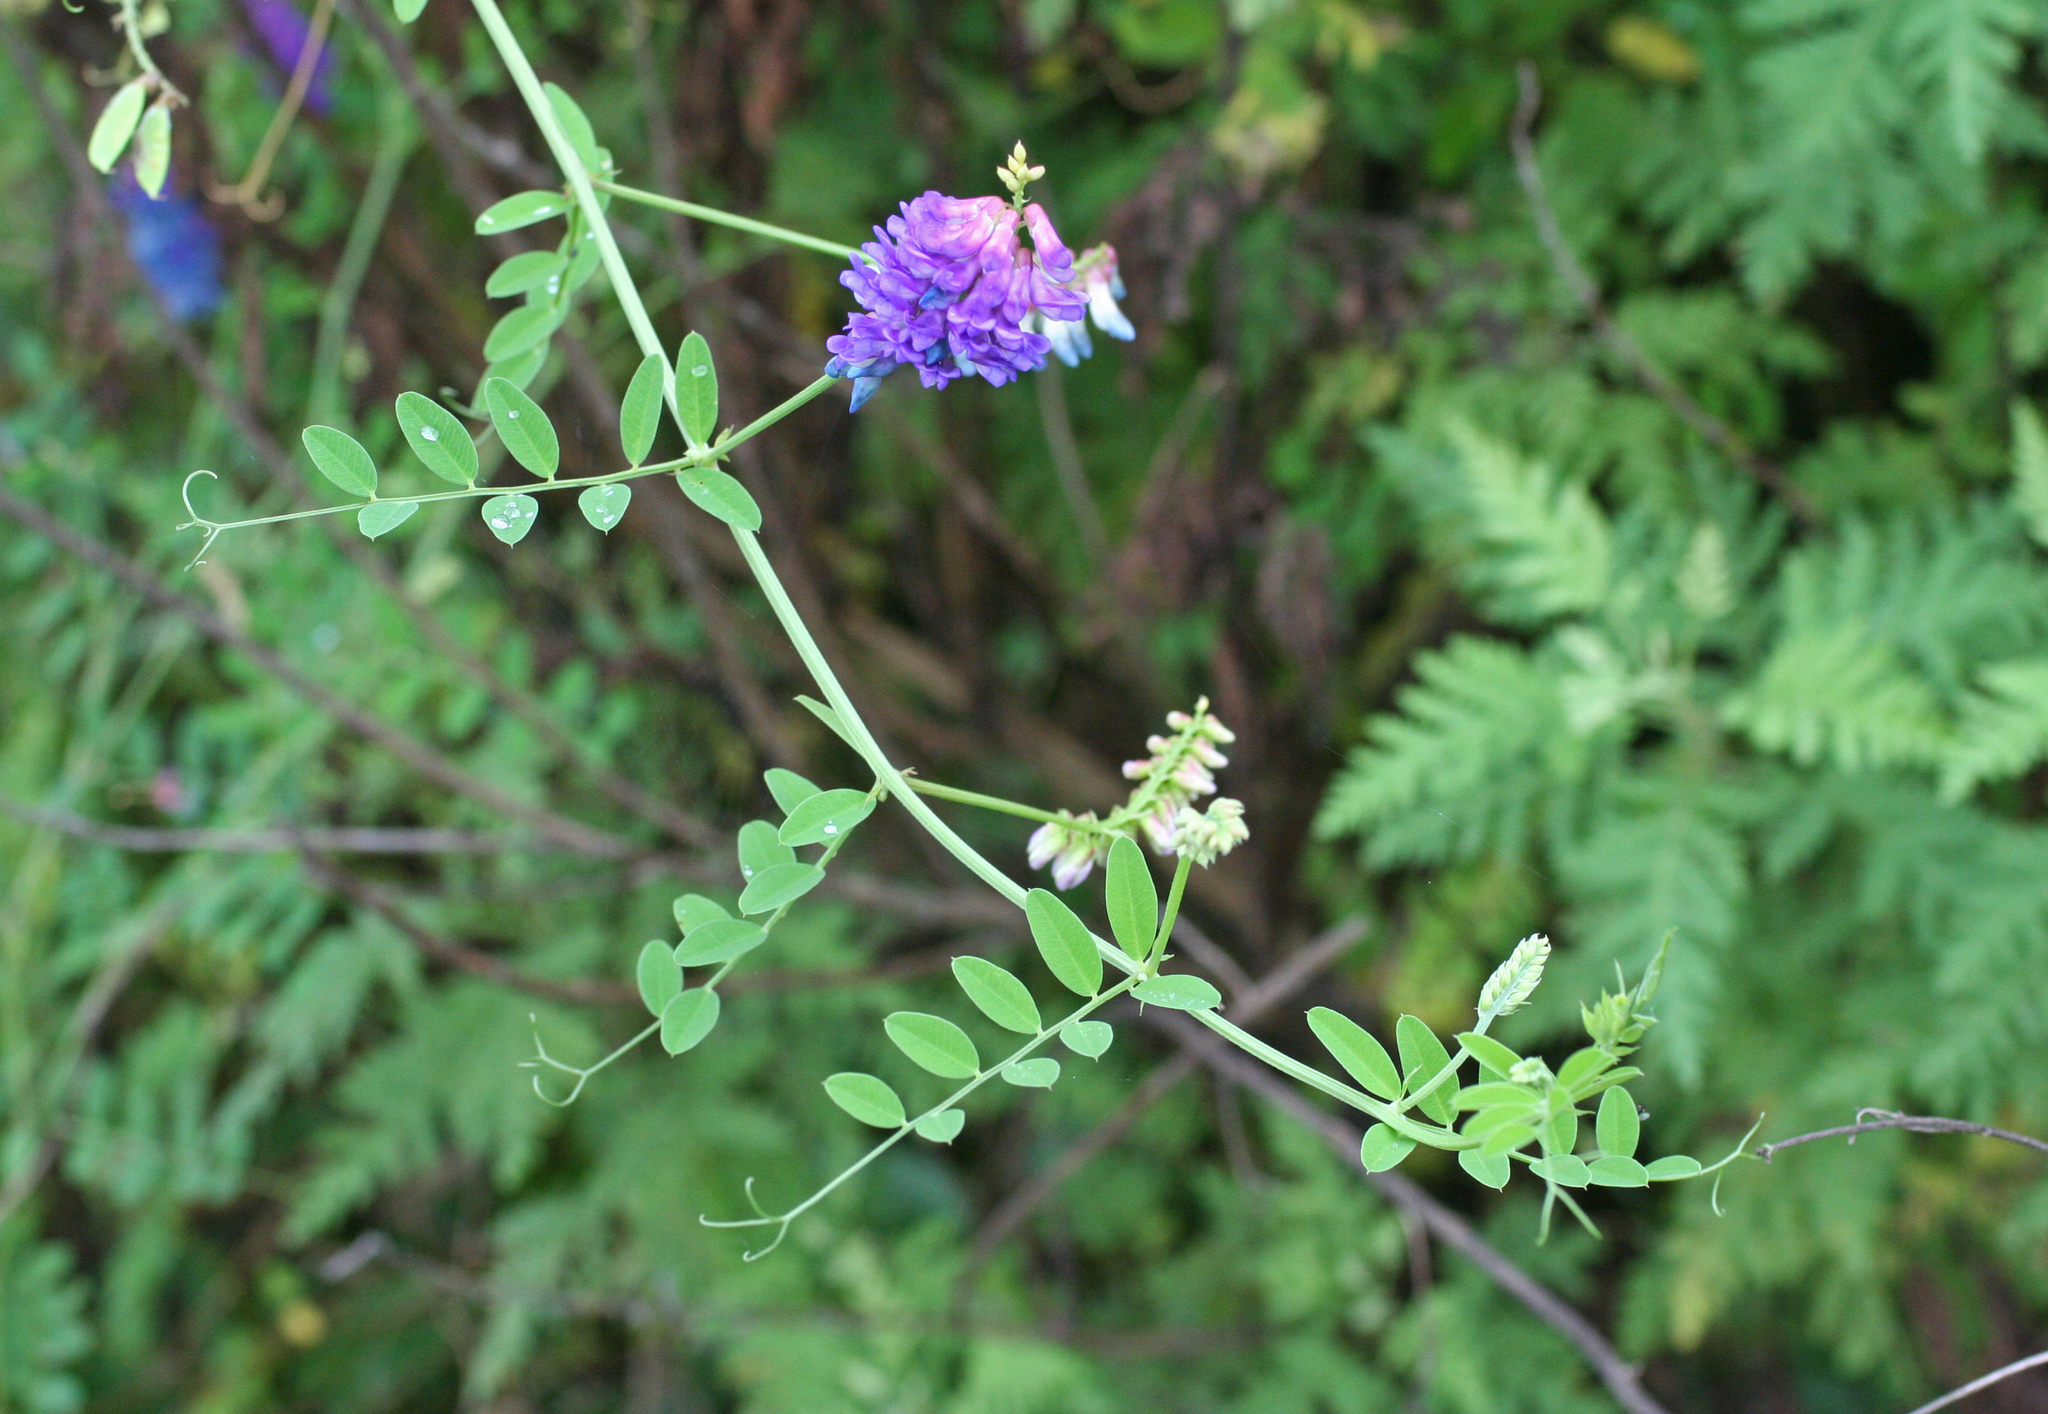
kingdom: Plantae
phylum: Tracheophyta
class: Magnoliopsida
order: Fabales
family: Fabaceae
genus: Vicia
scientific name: Vicia amurensis
